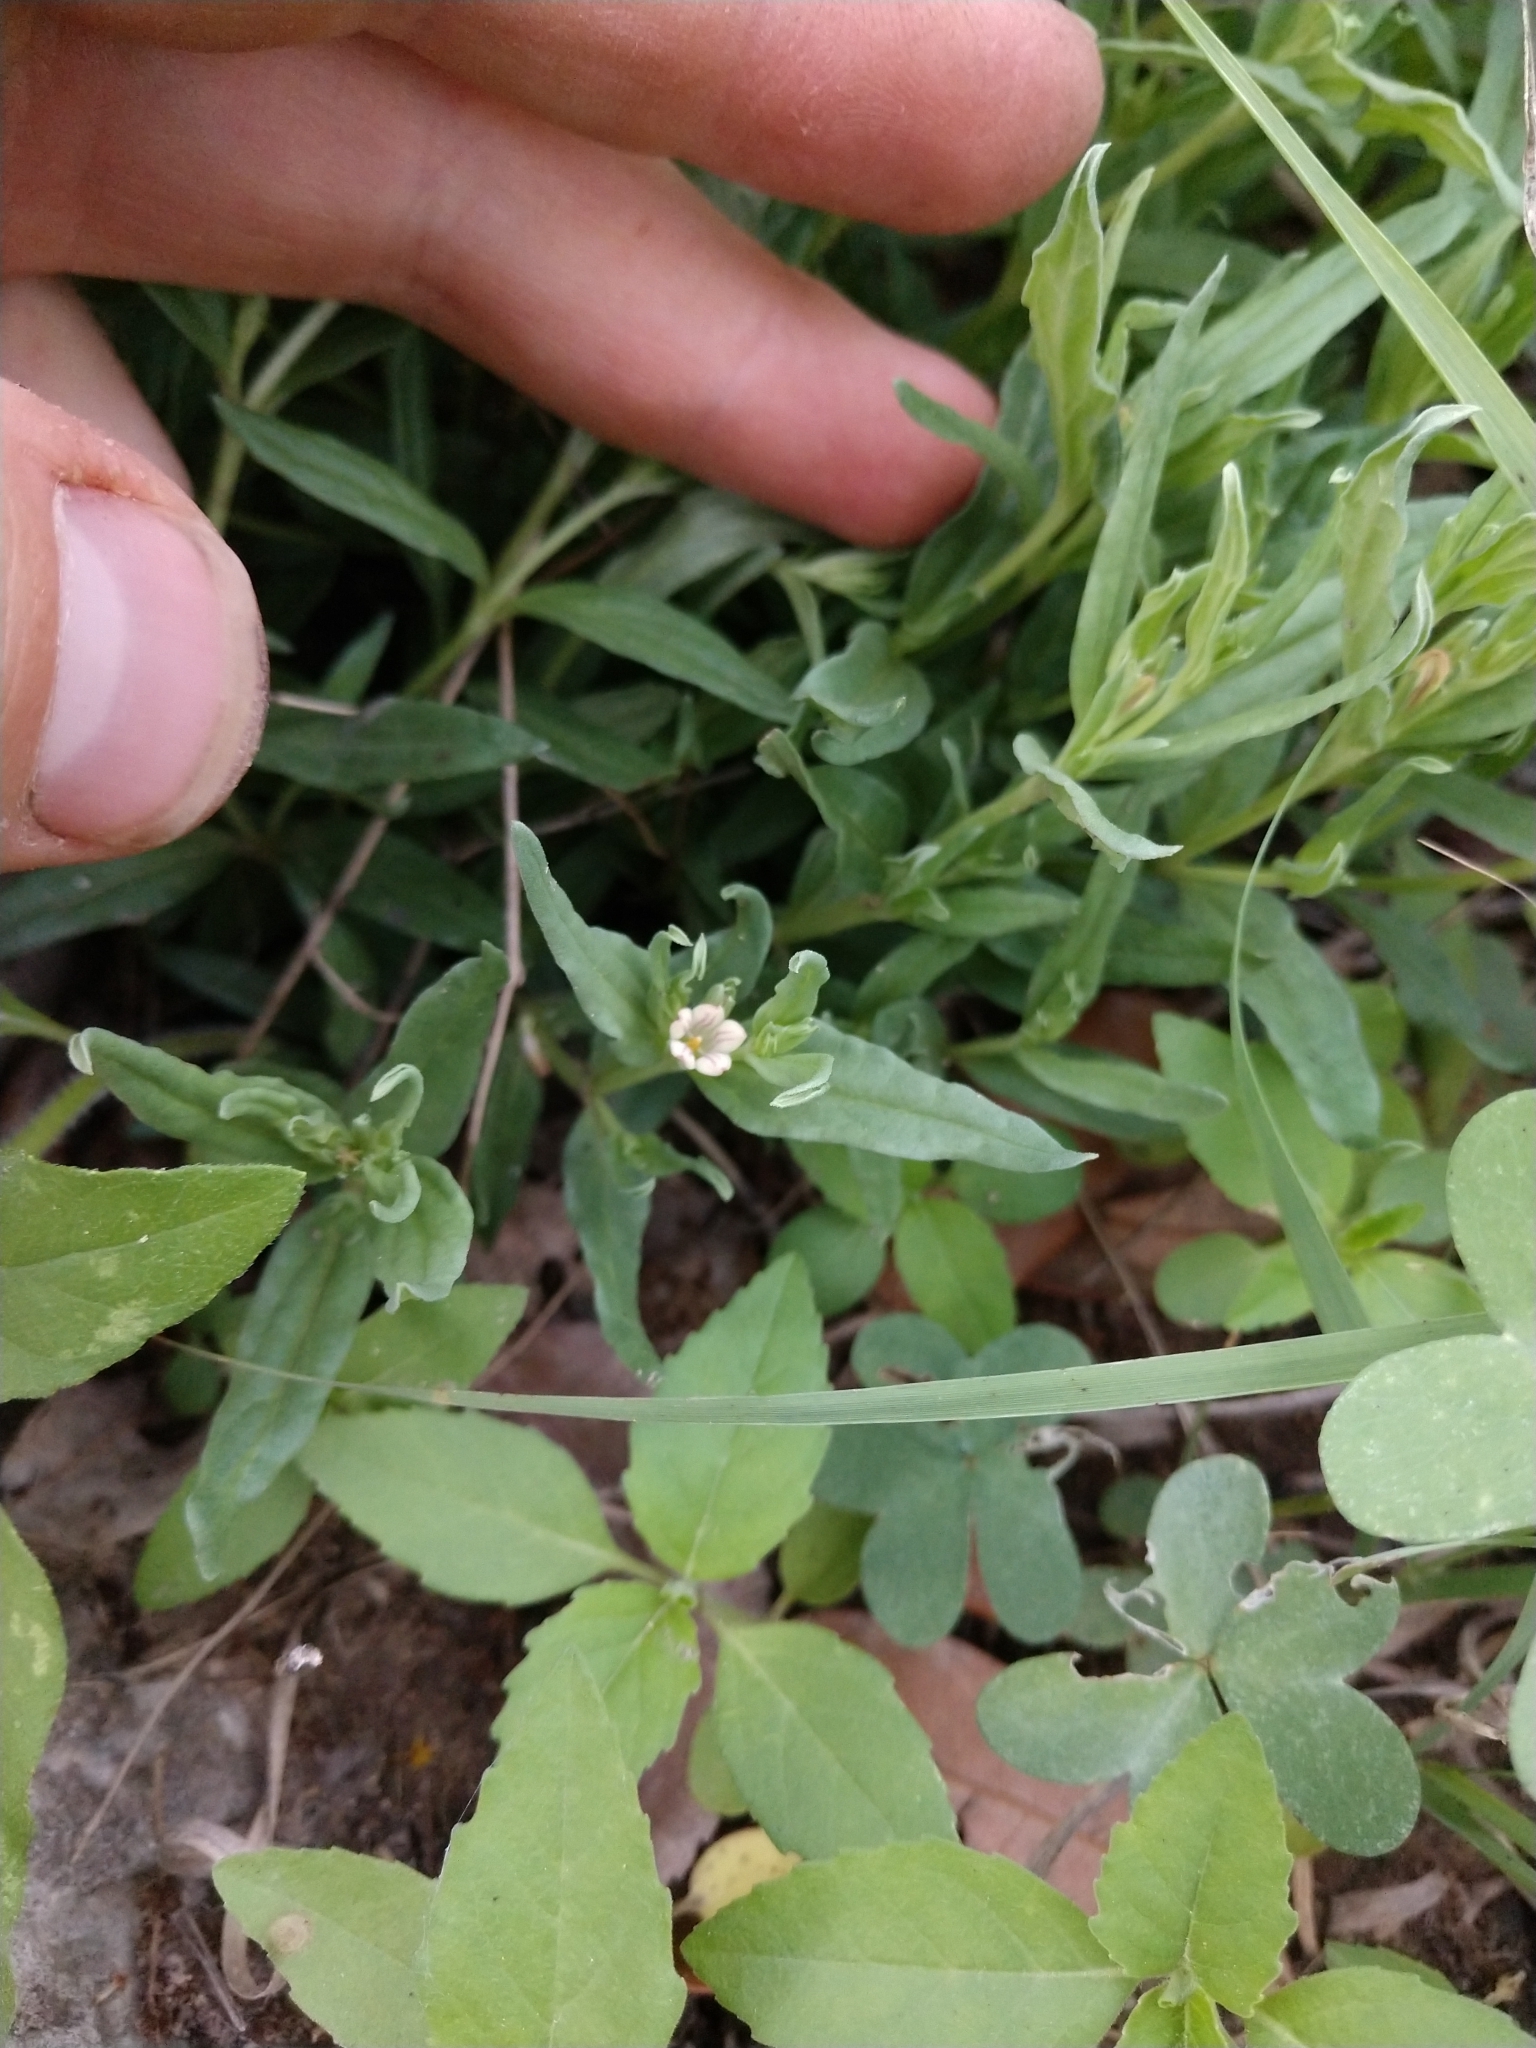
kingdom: Plantae
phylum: Tracheophyta
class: Magnoliopsida
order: Gentianales
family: Loganiaceae
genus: Spigelia
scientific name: Spigelia hedyotidea
